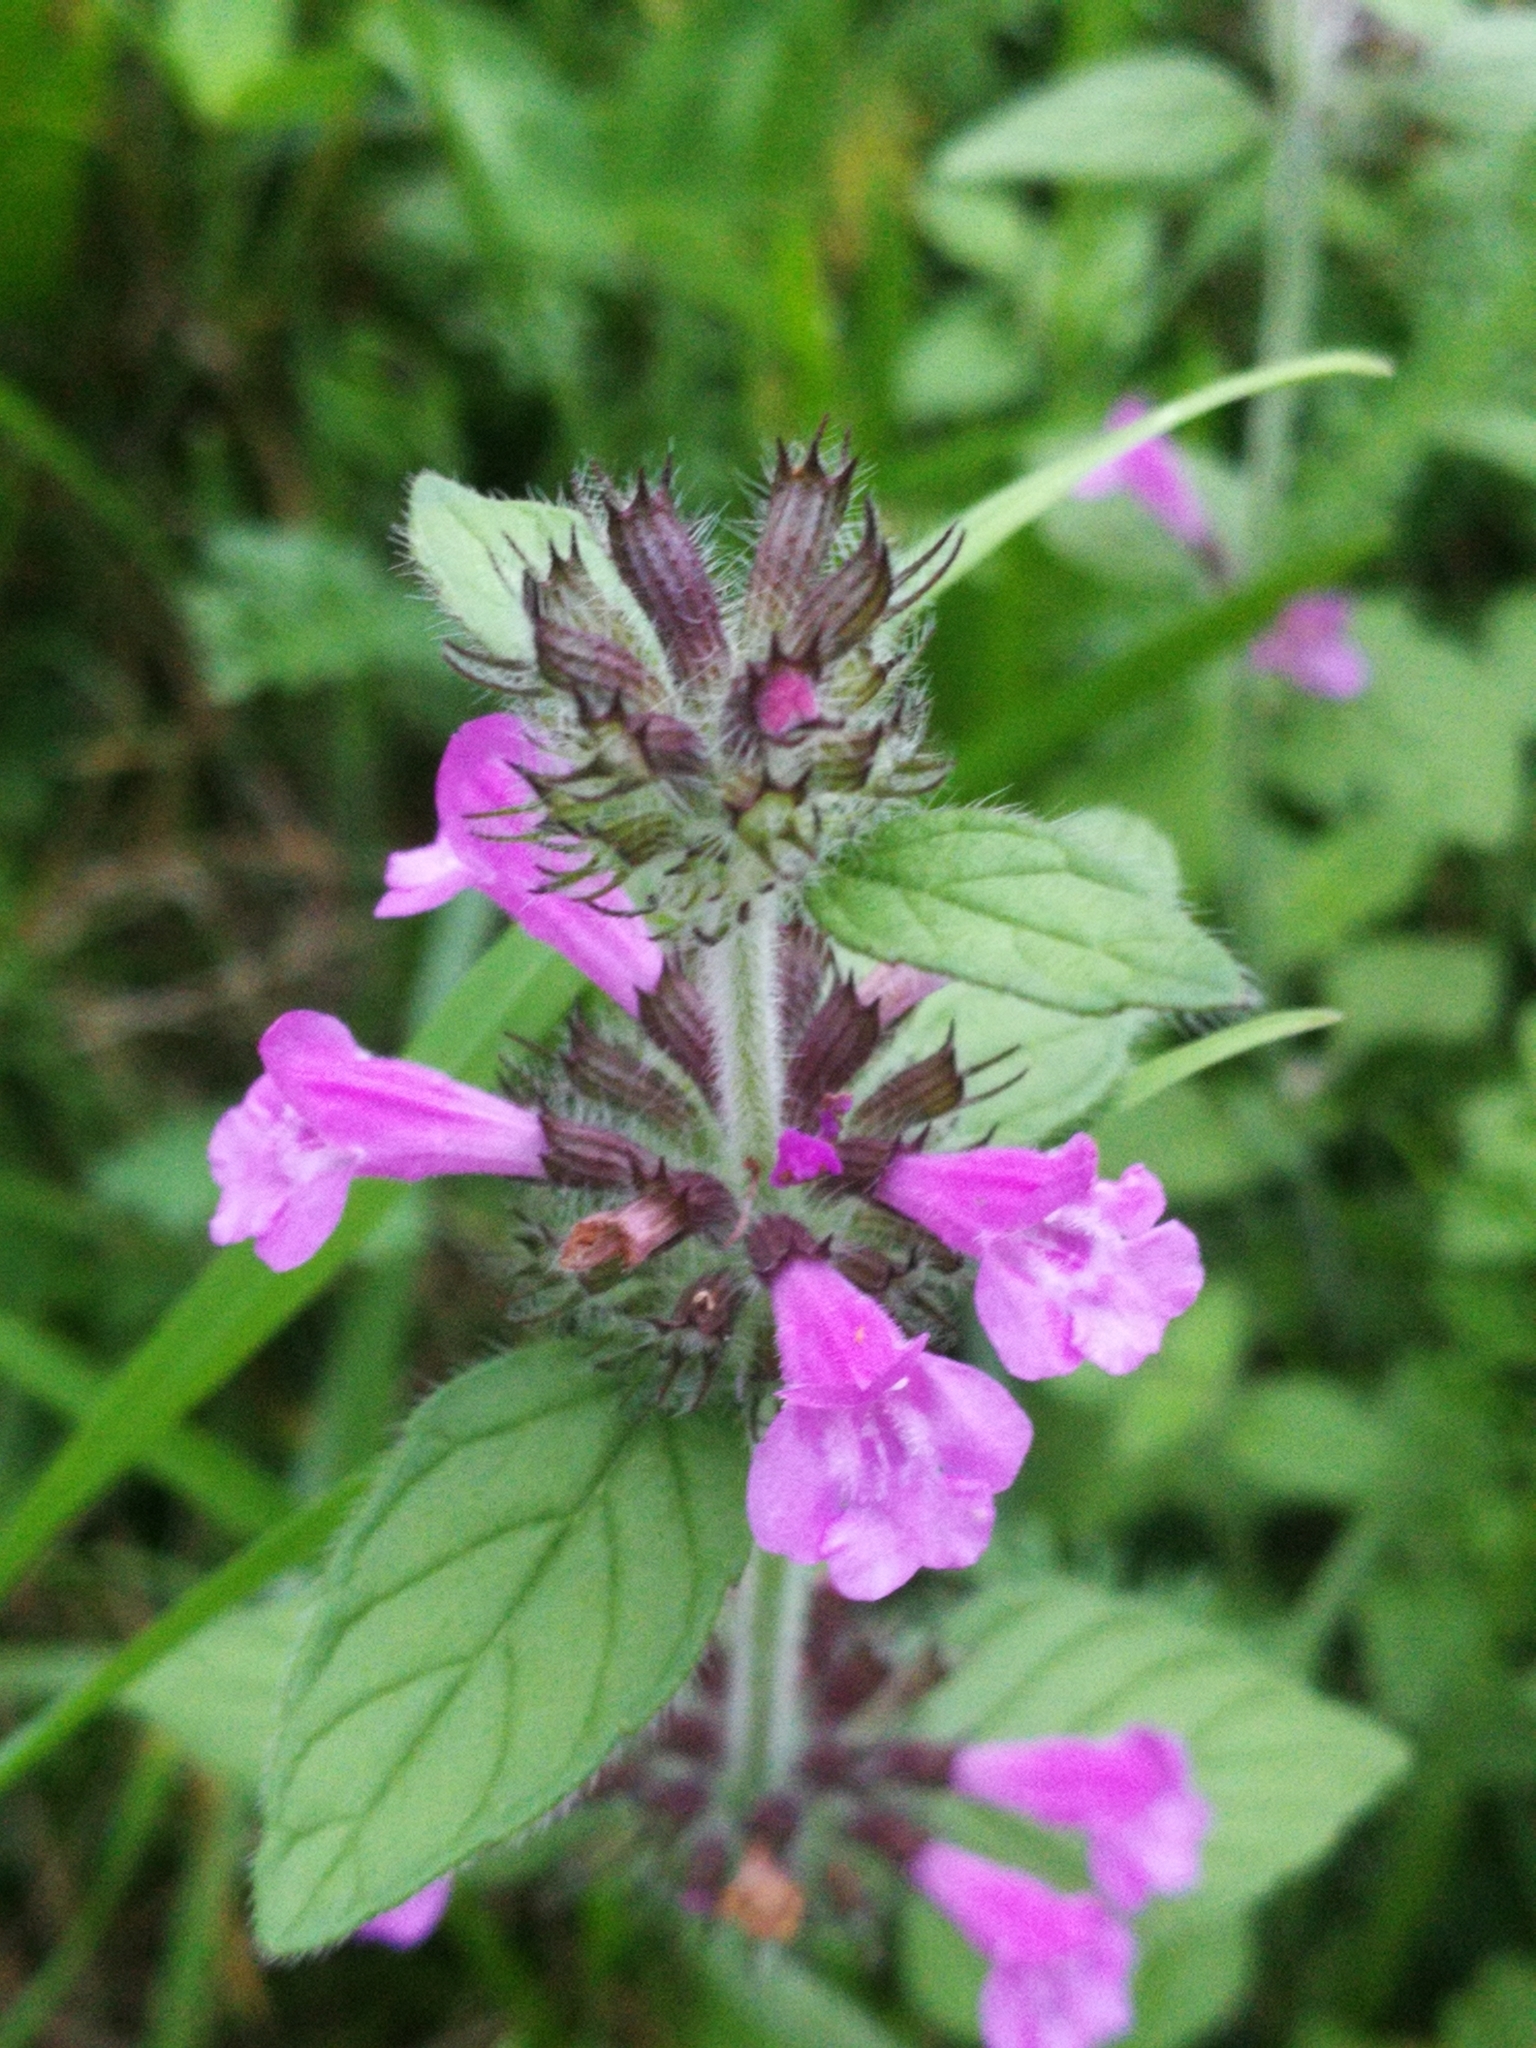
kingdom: Plantae
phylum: Tracheophyta
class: Magnoliopsida
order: Lamiales
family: Lamiaceae
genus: Clinopodium
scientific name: Clinopodium vulgare
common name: Wild basil
